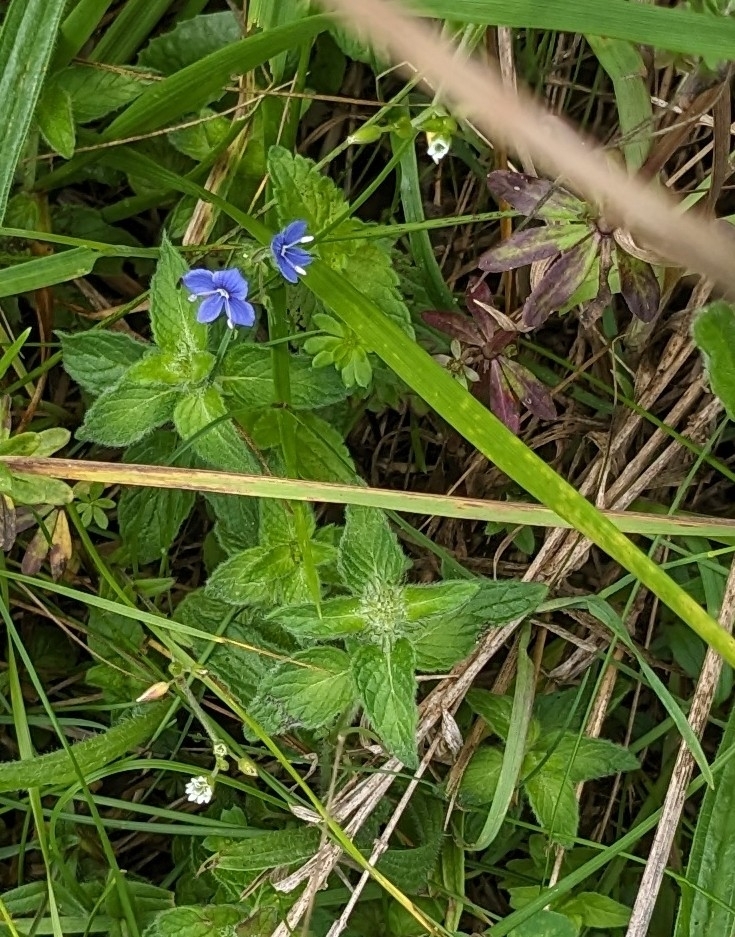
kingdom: Plantae
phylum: Tracheophyta
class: Magnoliopsida
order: Lamiales
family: Plantaginaceae
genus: Veronica
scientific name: Veronica chamaedrys
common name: Germander speedwell
